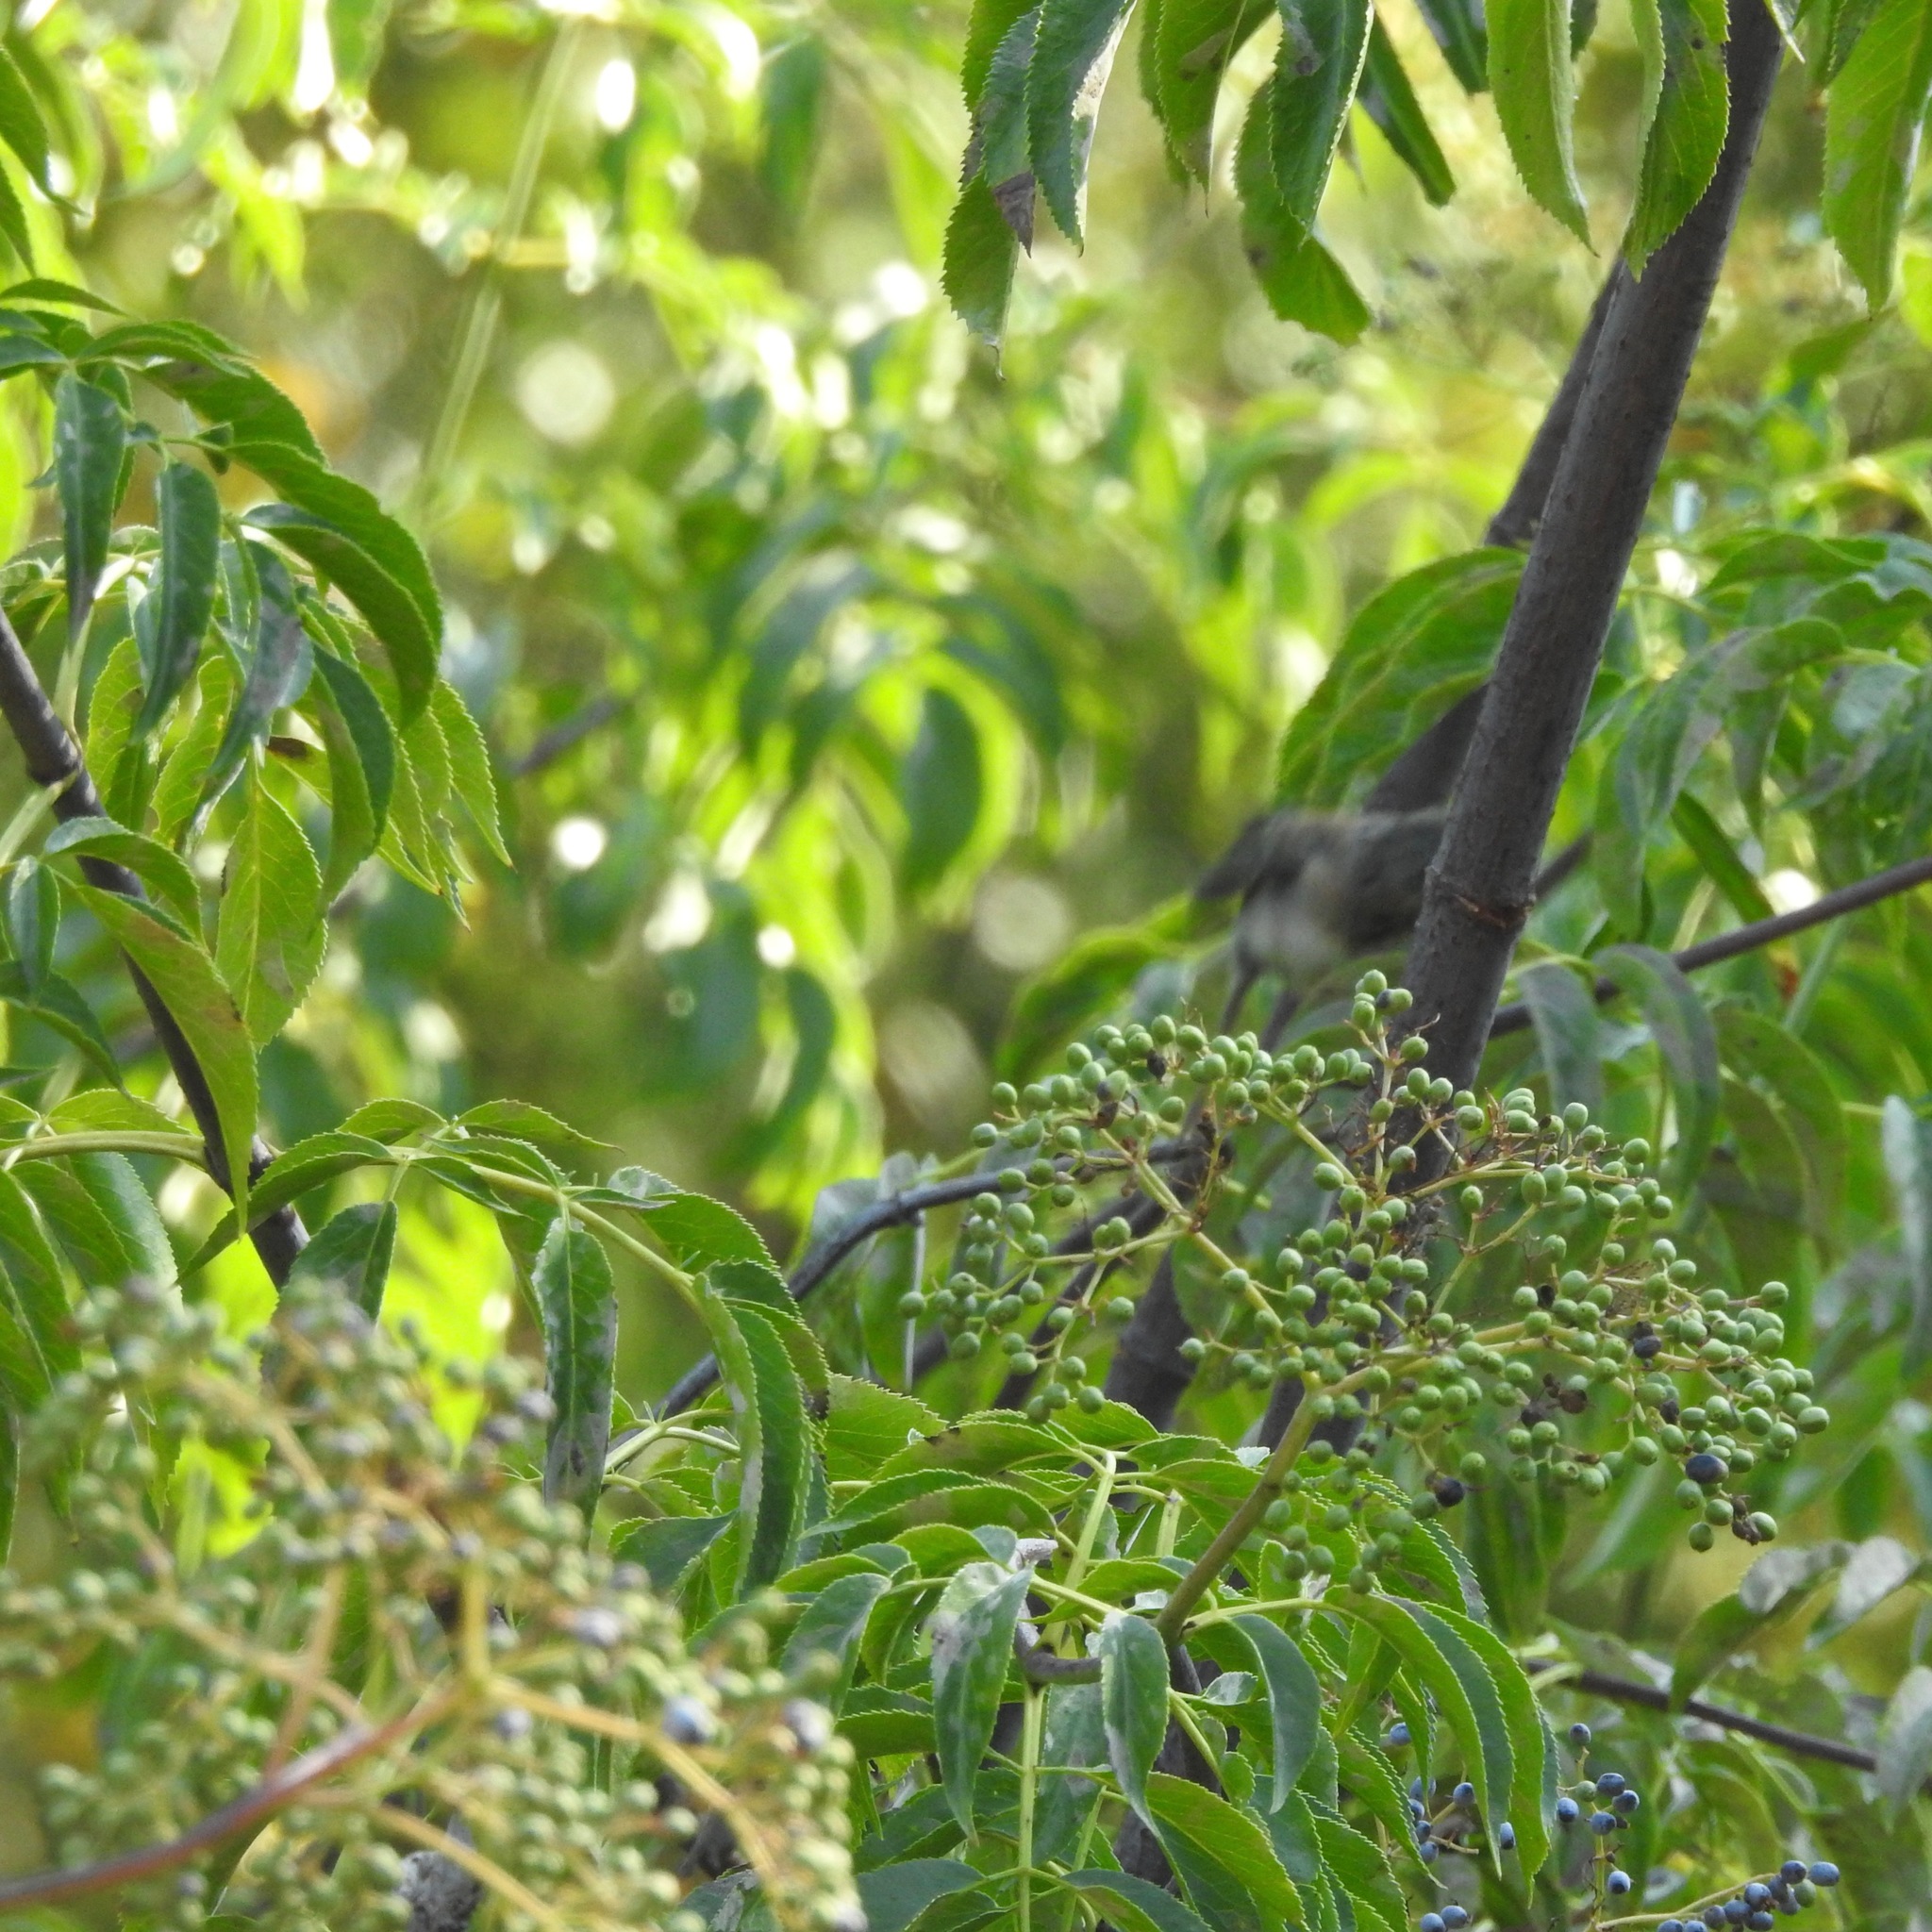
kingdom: Plantae
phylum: Tracheophyta
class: Magnoliopsida
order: Dipsacales
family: Viburnaceae
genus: Sambucus
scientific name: Sambucus cerulea
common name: Blue elder
